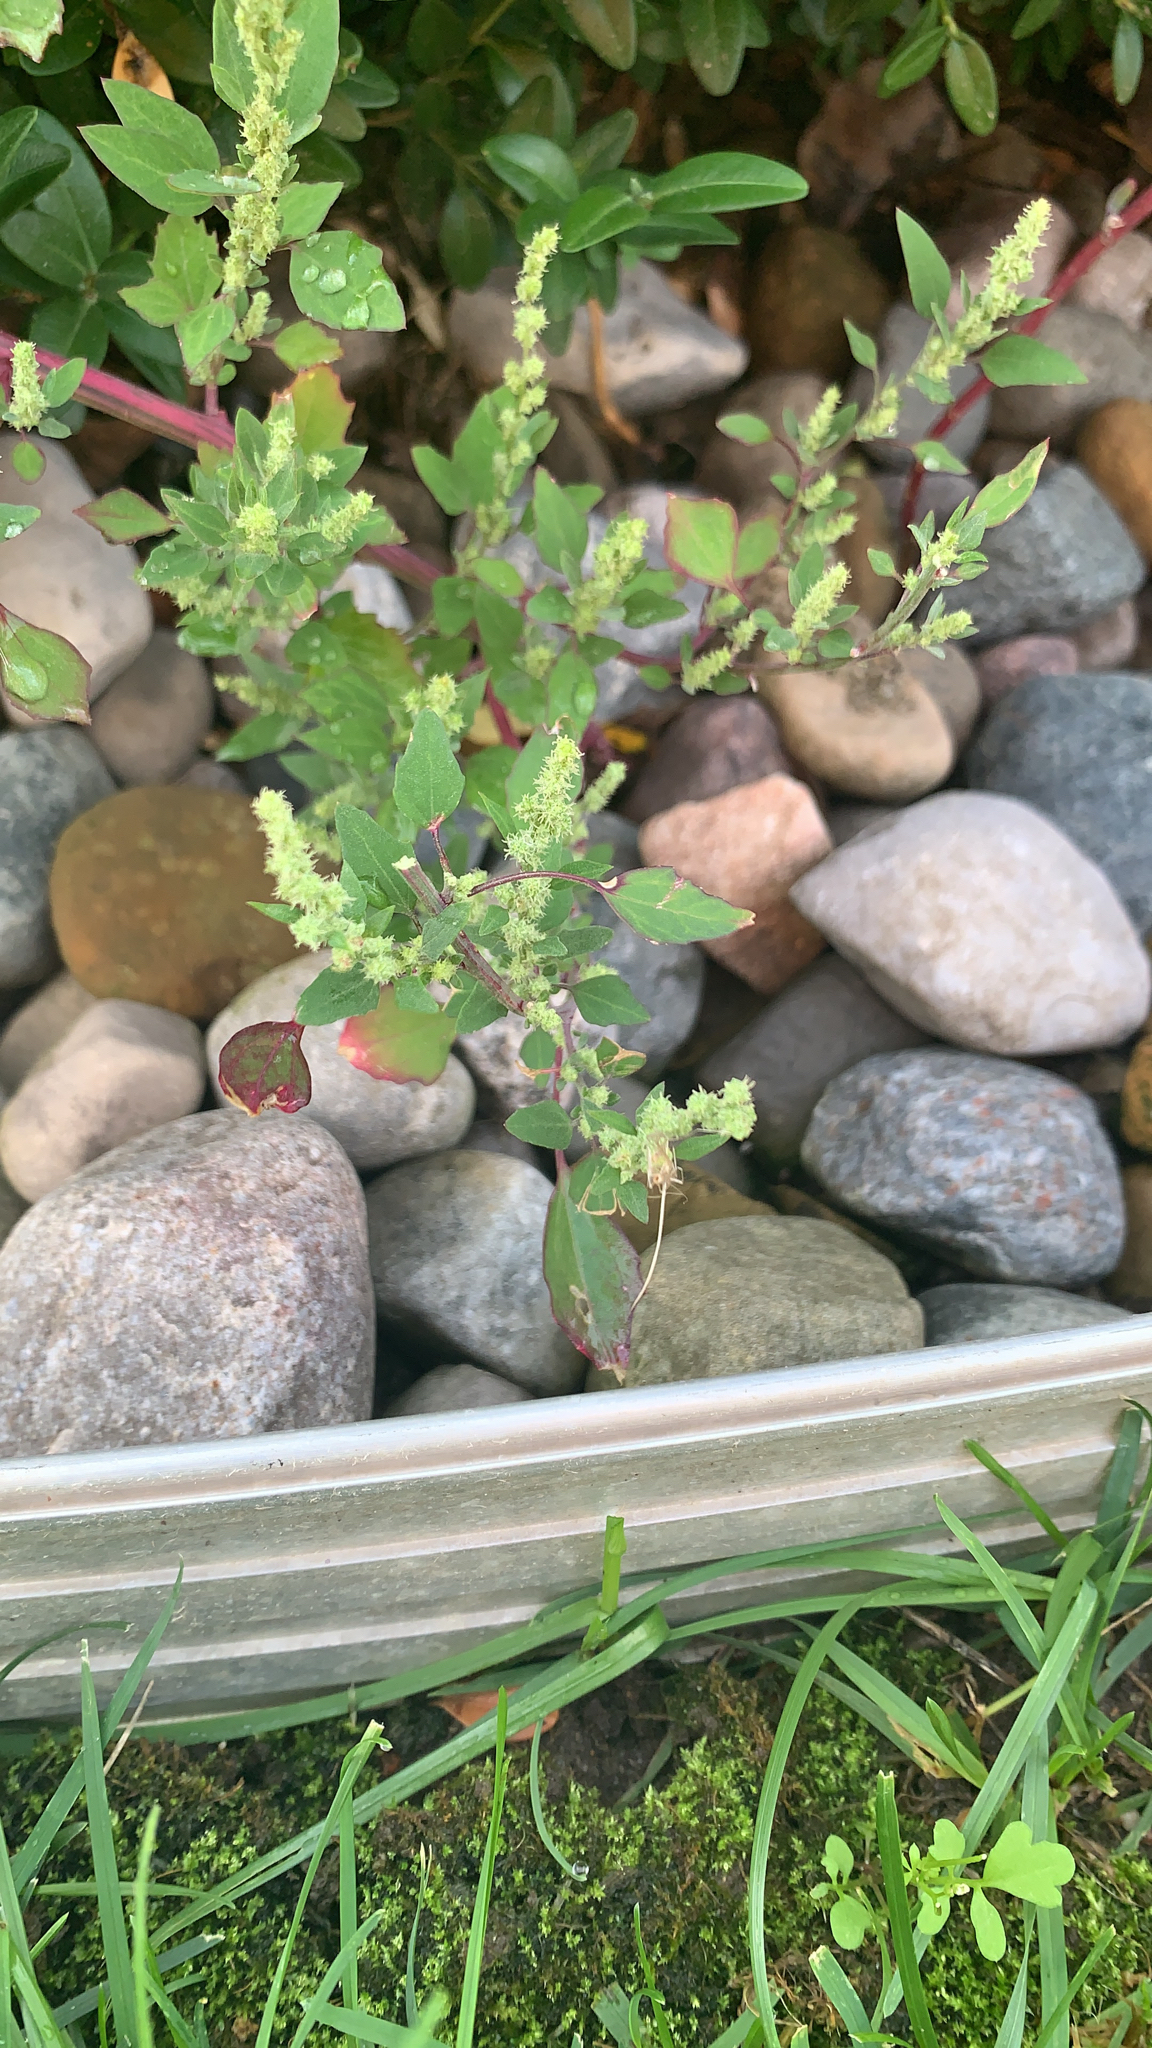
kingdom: Plantae
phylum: Tracheophyta
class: Magnoliopsida
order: Caryophyllales
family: Amaranthaceae
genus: Chenopodium
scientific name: Chenopodium album
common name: Fat-hen
